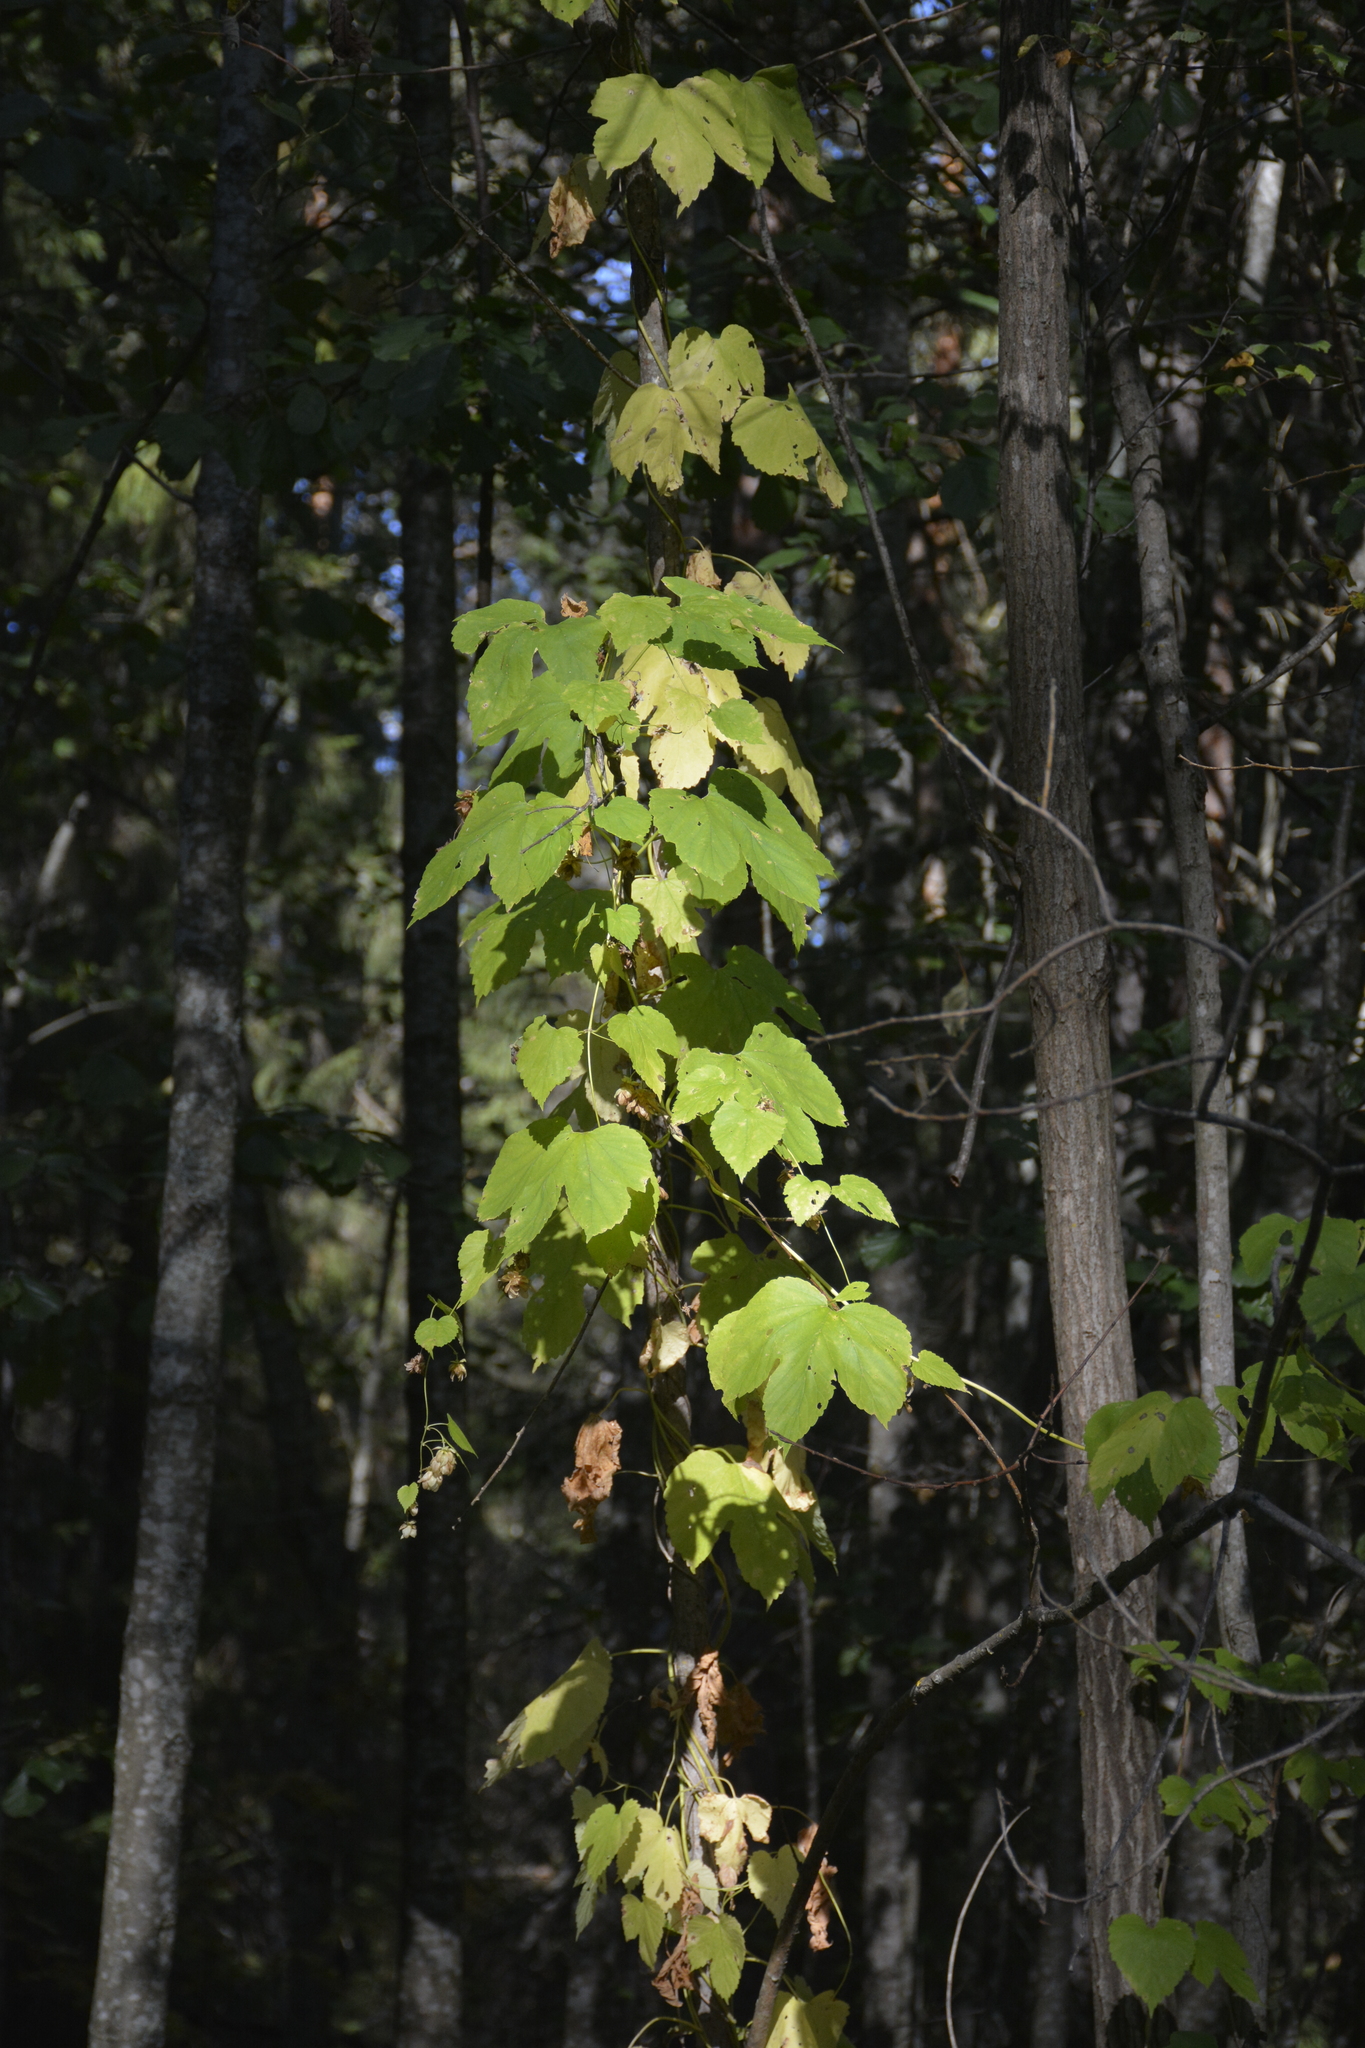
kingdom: Plantae
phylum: Tracheophyta
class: Magnoliopsida
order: Rosales
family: Cannabaceae
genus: Humulus
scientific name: Humulus lupulus
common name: Hop
